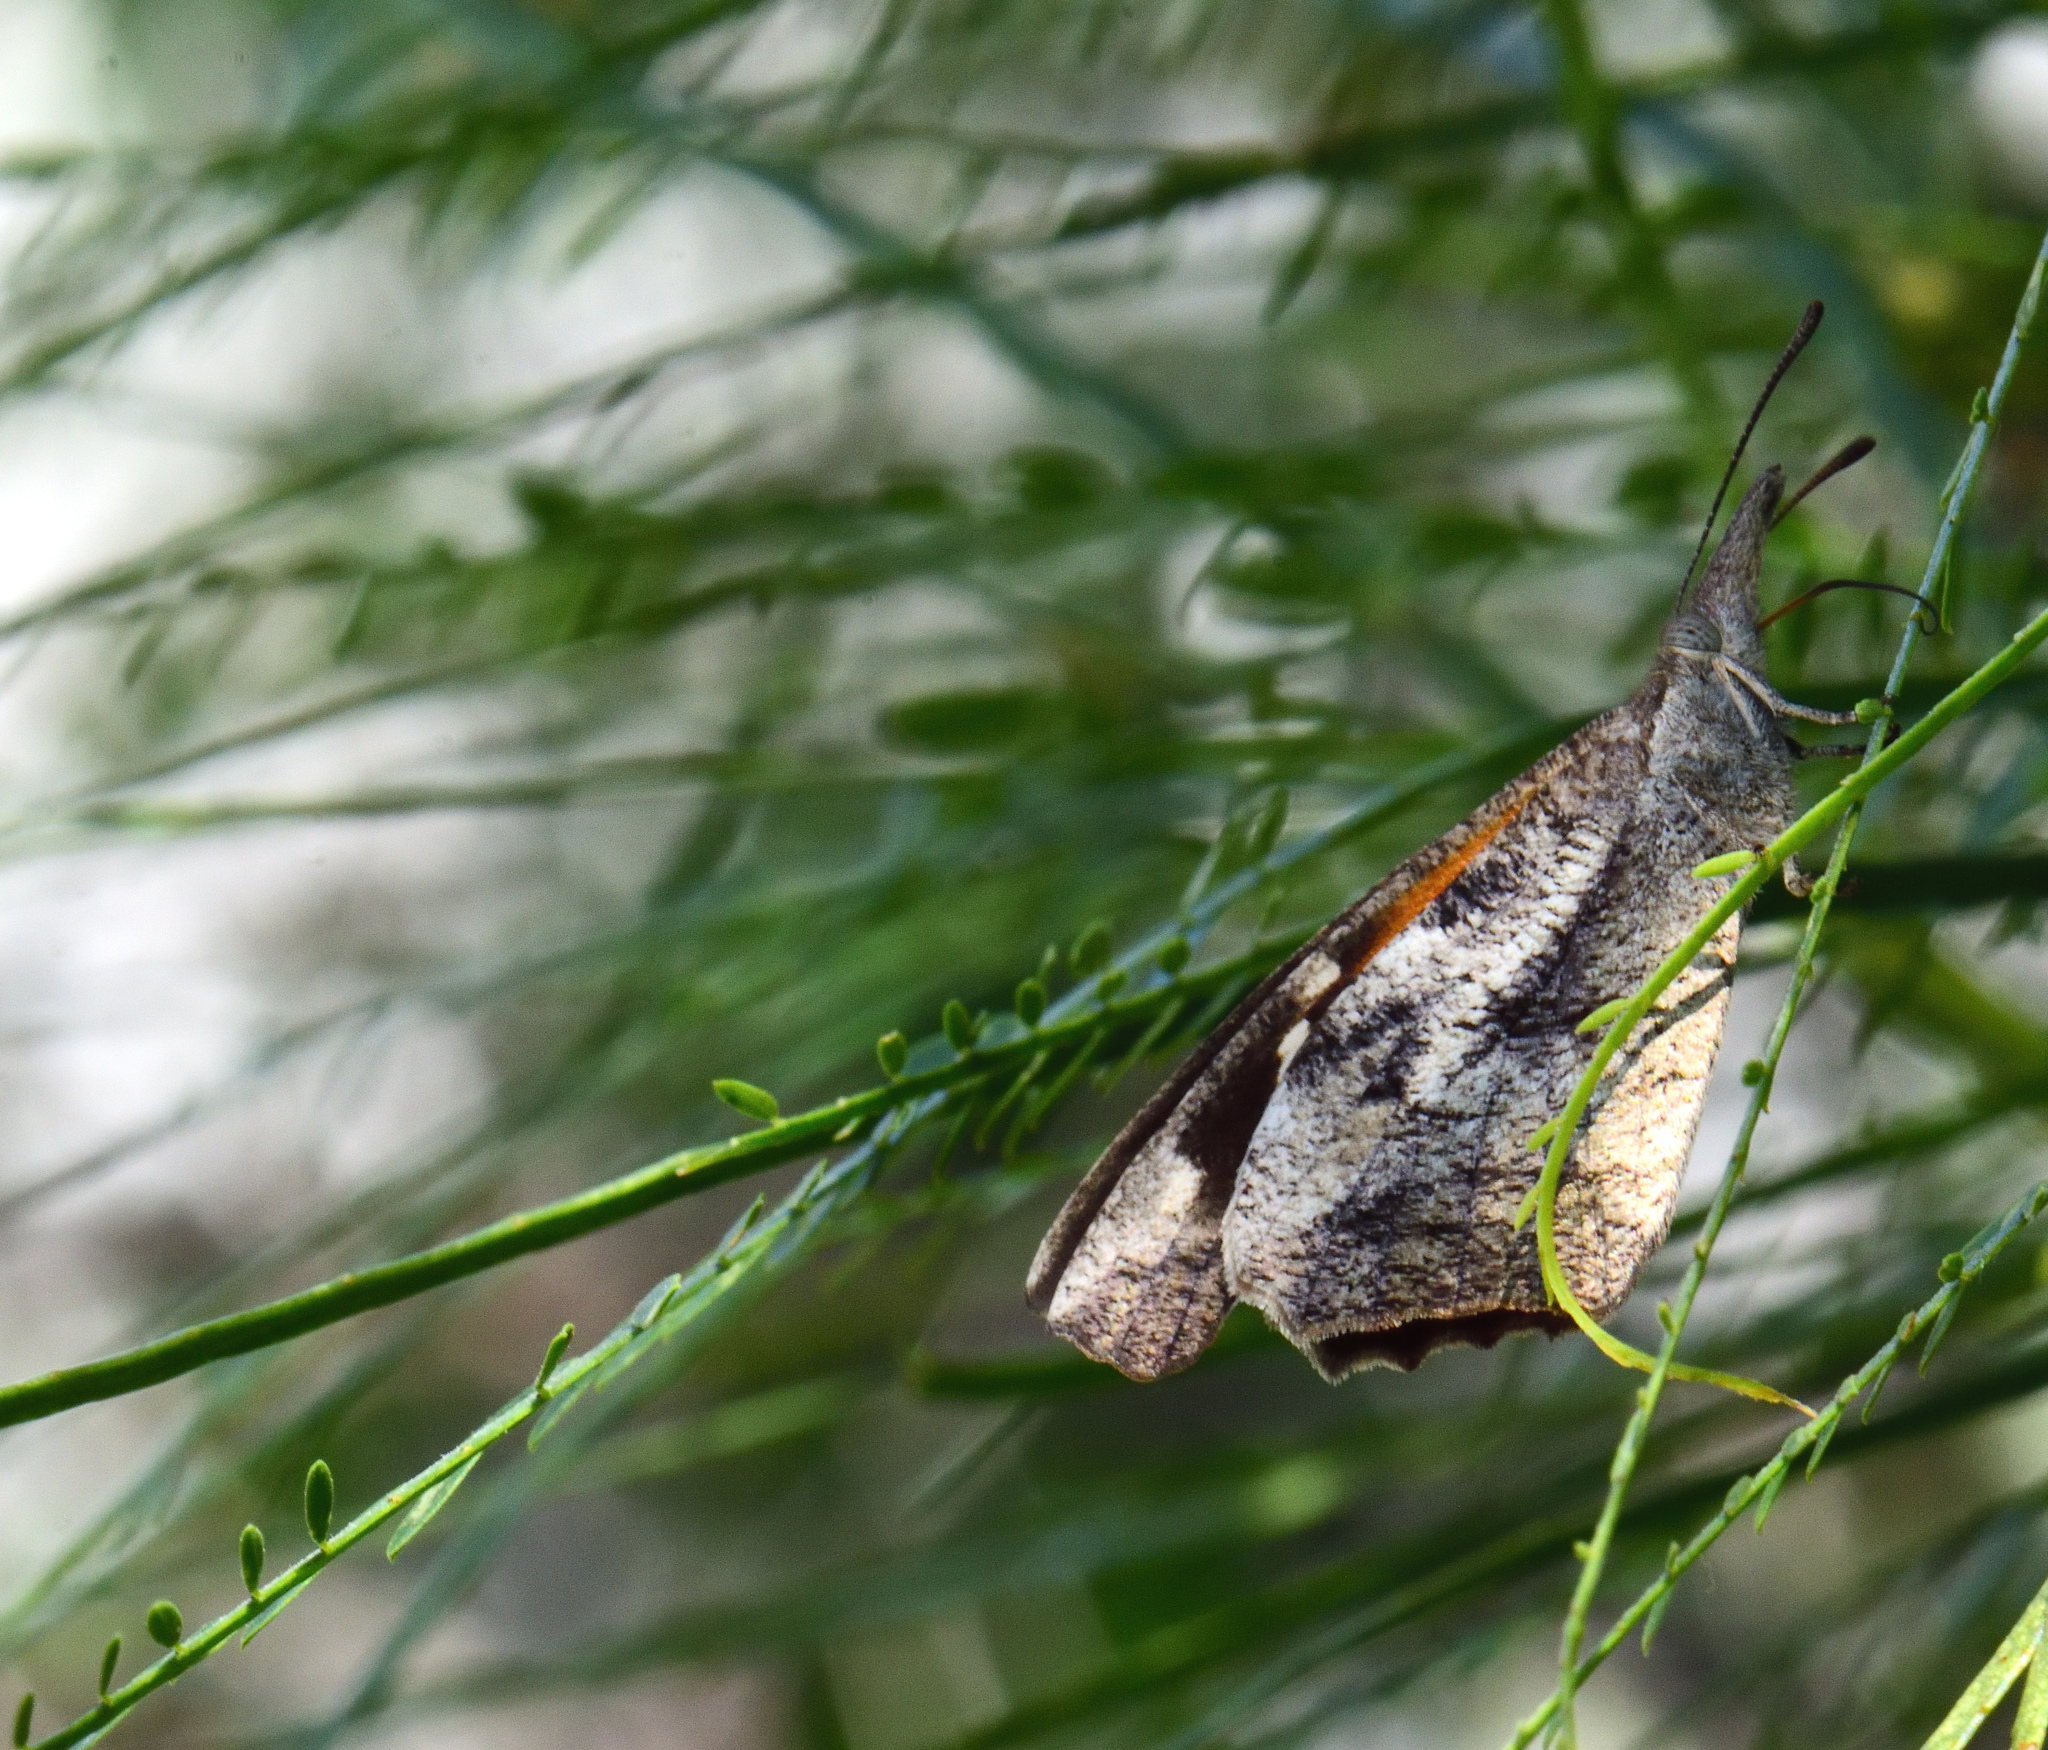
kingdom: Animalia
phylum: Arthropoda
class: Insecta
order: Lepidoptera
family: Nymphalidae
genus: Libytheana
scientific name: Libytheana carinenta
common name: American snout
